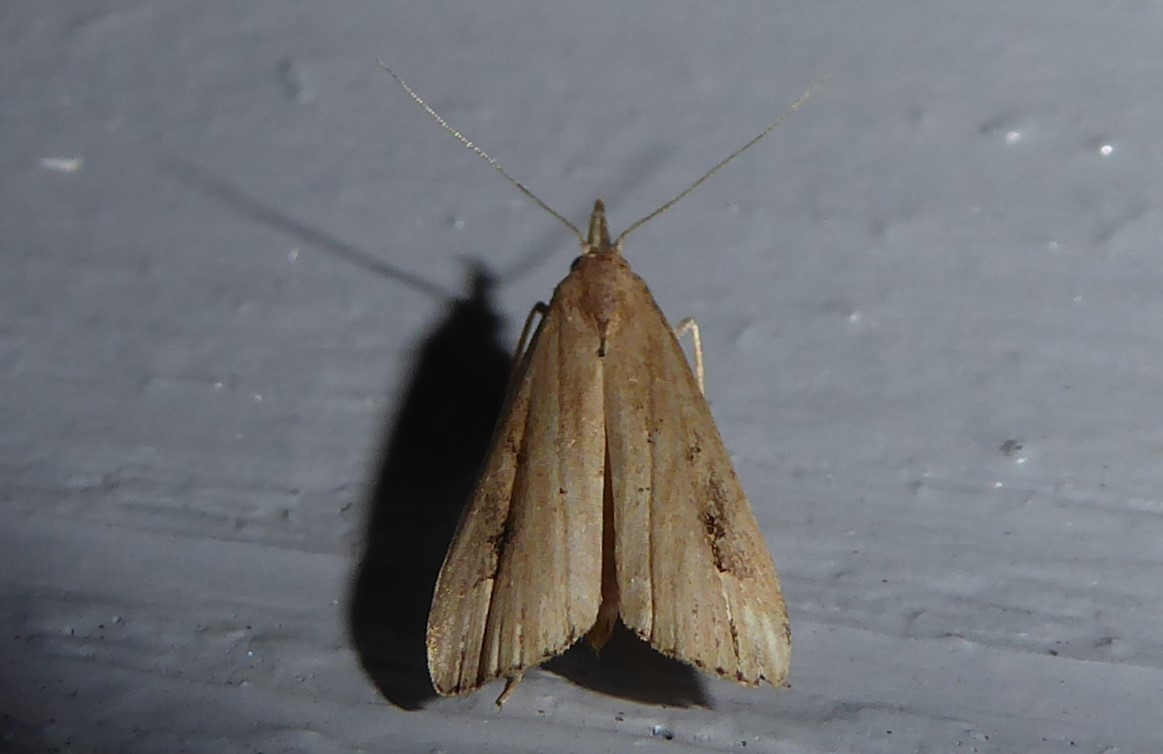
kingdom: Animalia
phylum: Arthropoda
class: Insecta
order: Lepidoptera
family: Erebidae
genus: Schrankia
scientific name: Schrankia costaestrigalis
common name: Pinion-streaked snout
